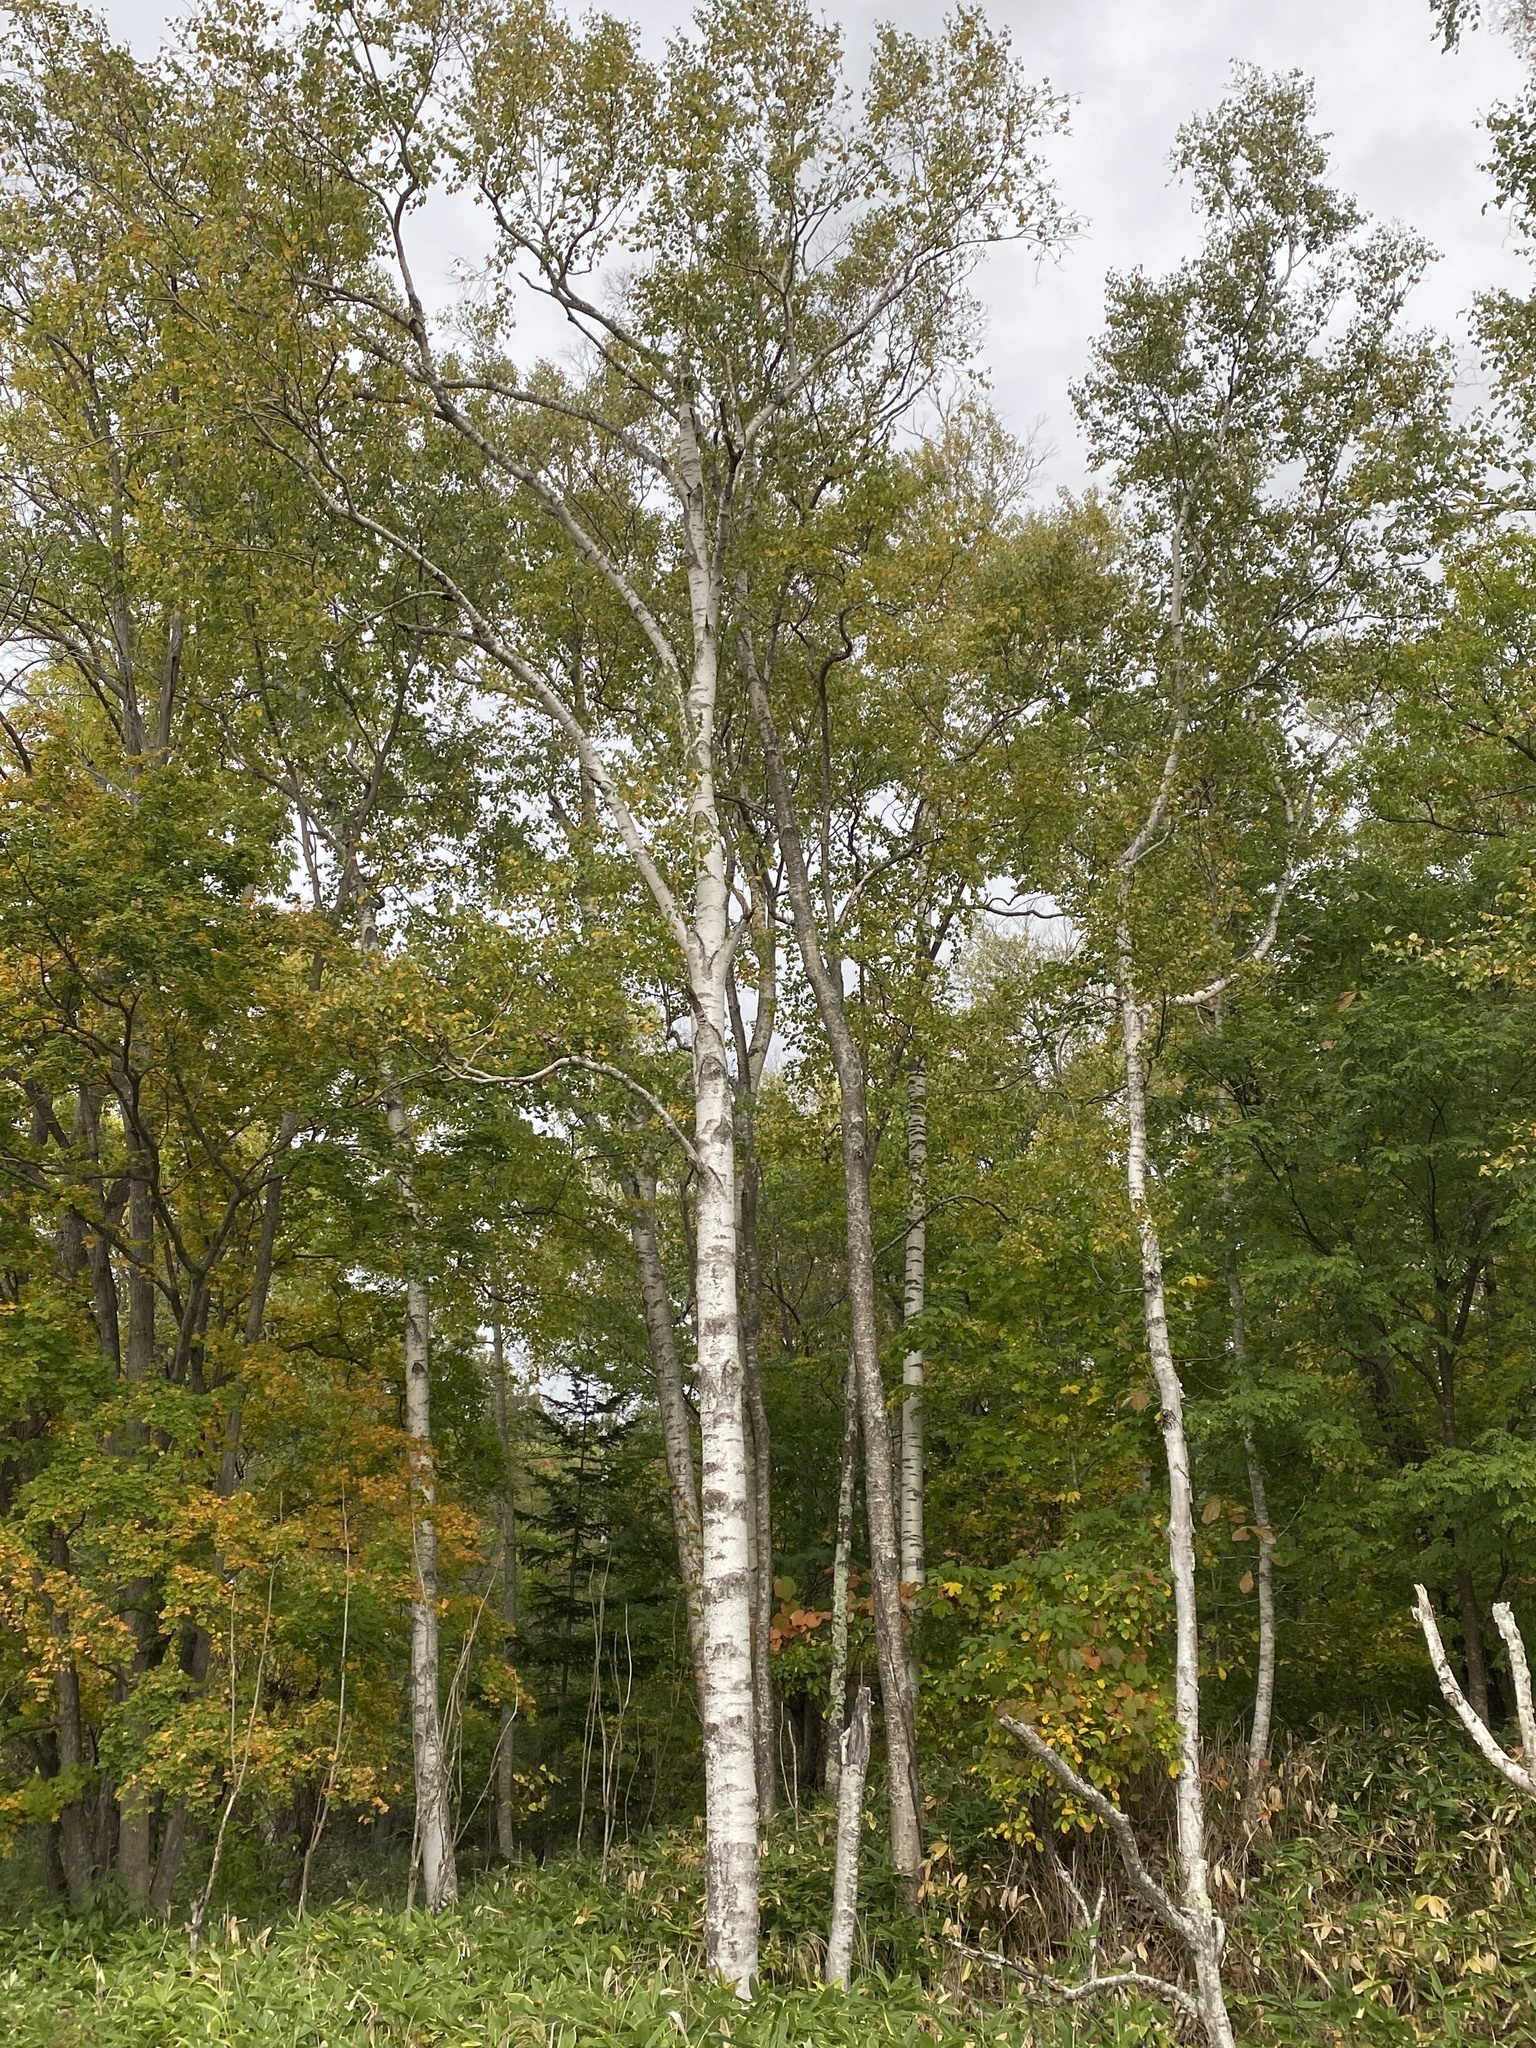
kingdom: Plantae
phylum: Tracheophyta
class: Magnoliopsida
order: Fagales
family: Betulaceae
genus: Betula
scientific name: Betula pendula
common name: Silver birch
